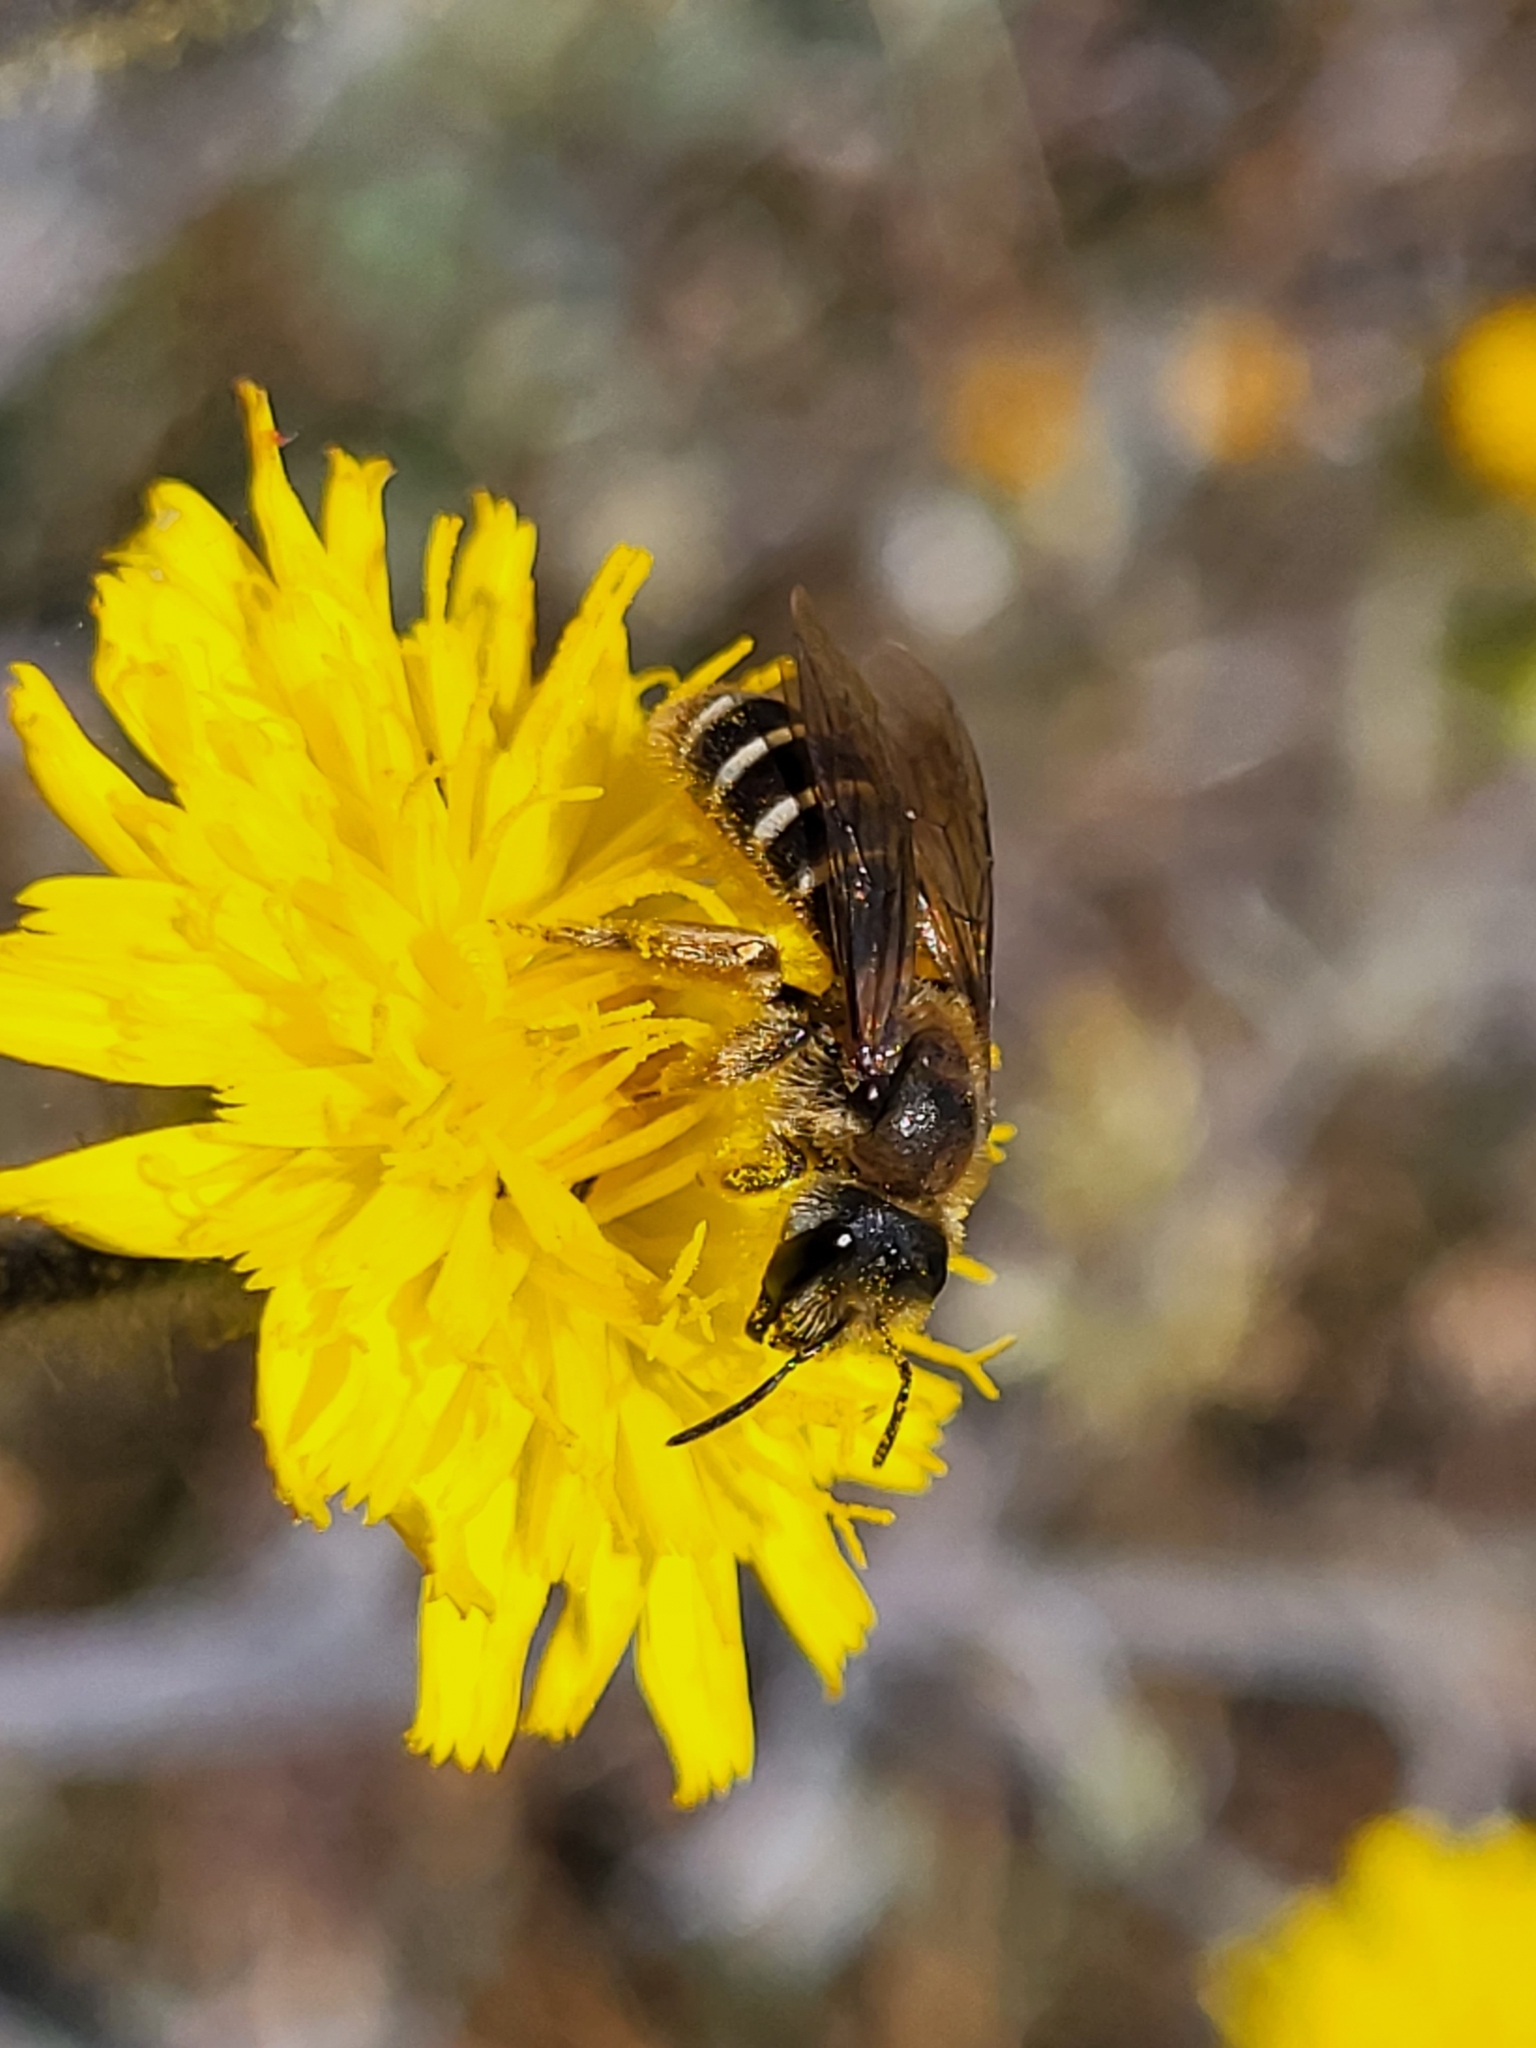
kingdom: Animalia
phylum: Arthropoda
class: Insecta
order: Hymenoptera
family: Halictidae
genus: Halictus
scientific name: Halictus frontalis
